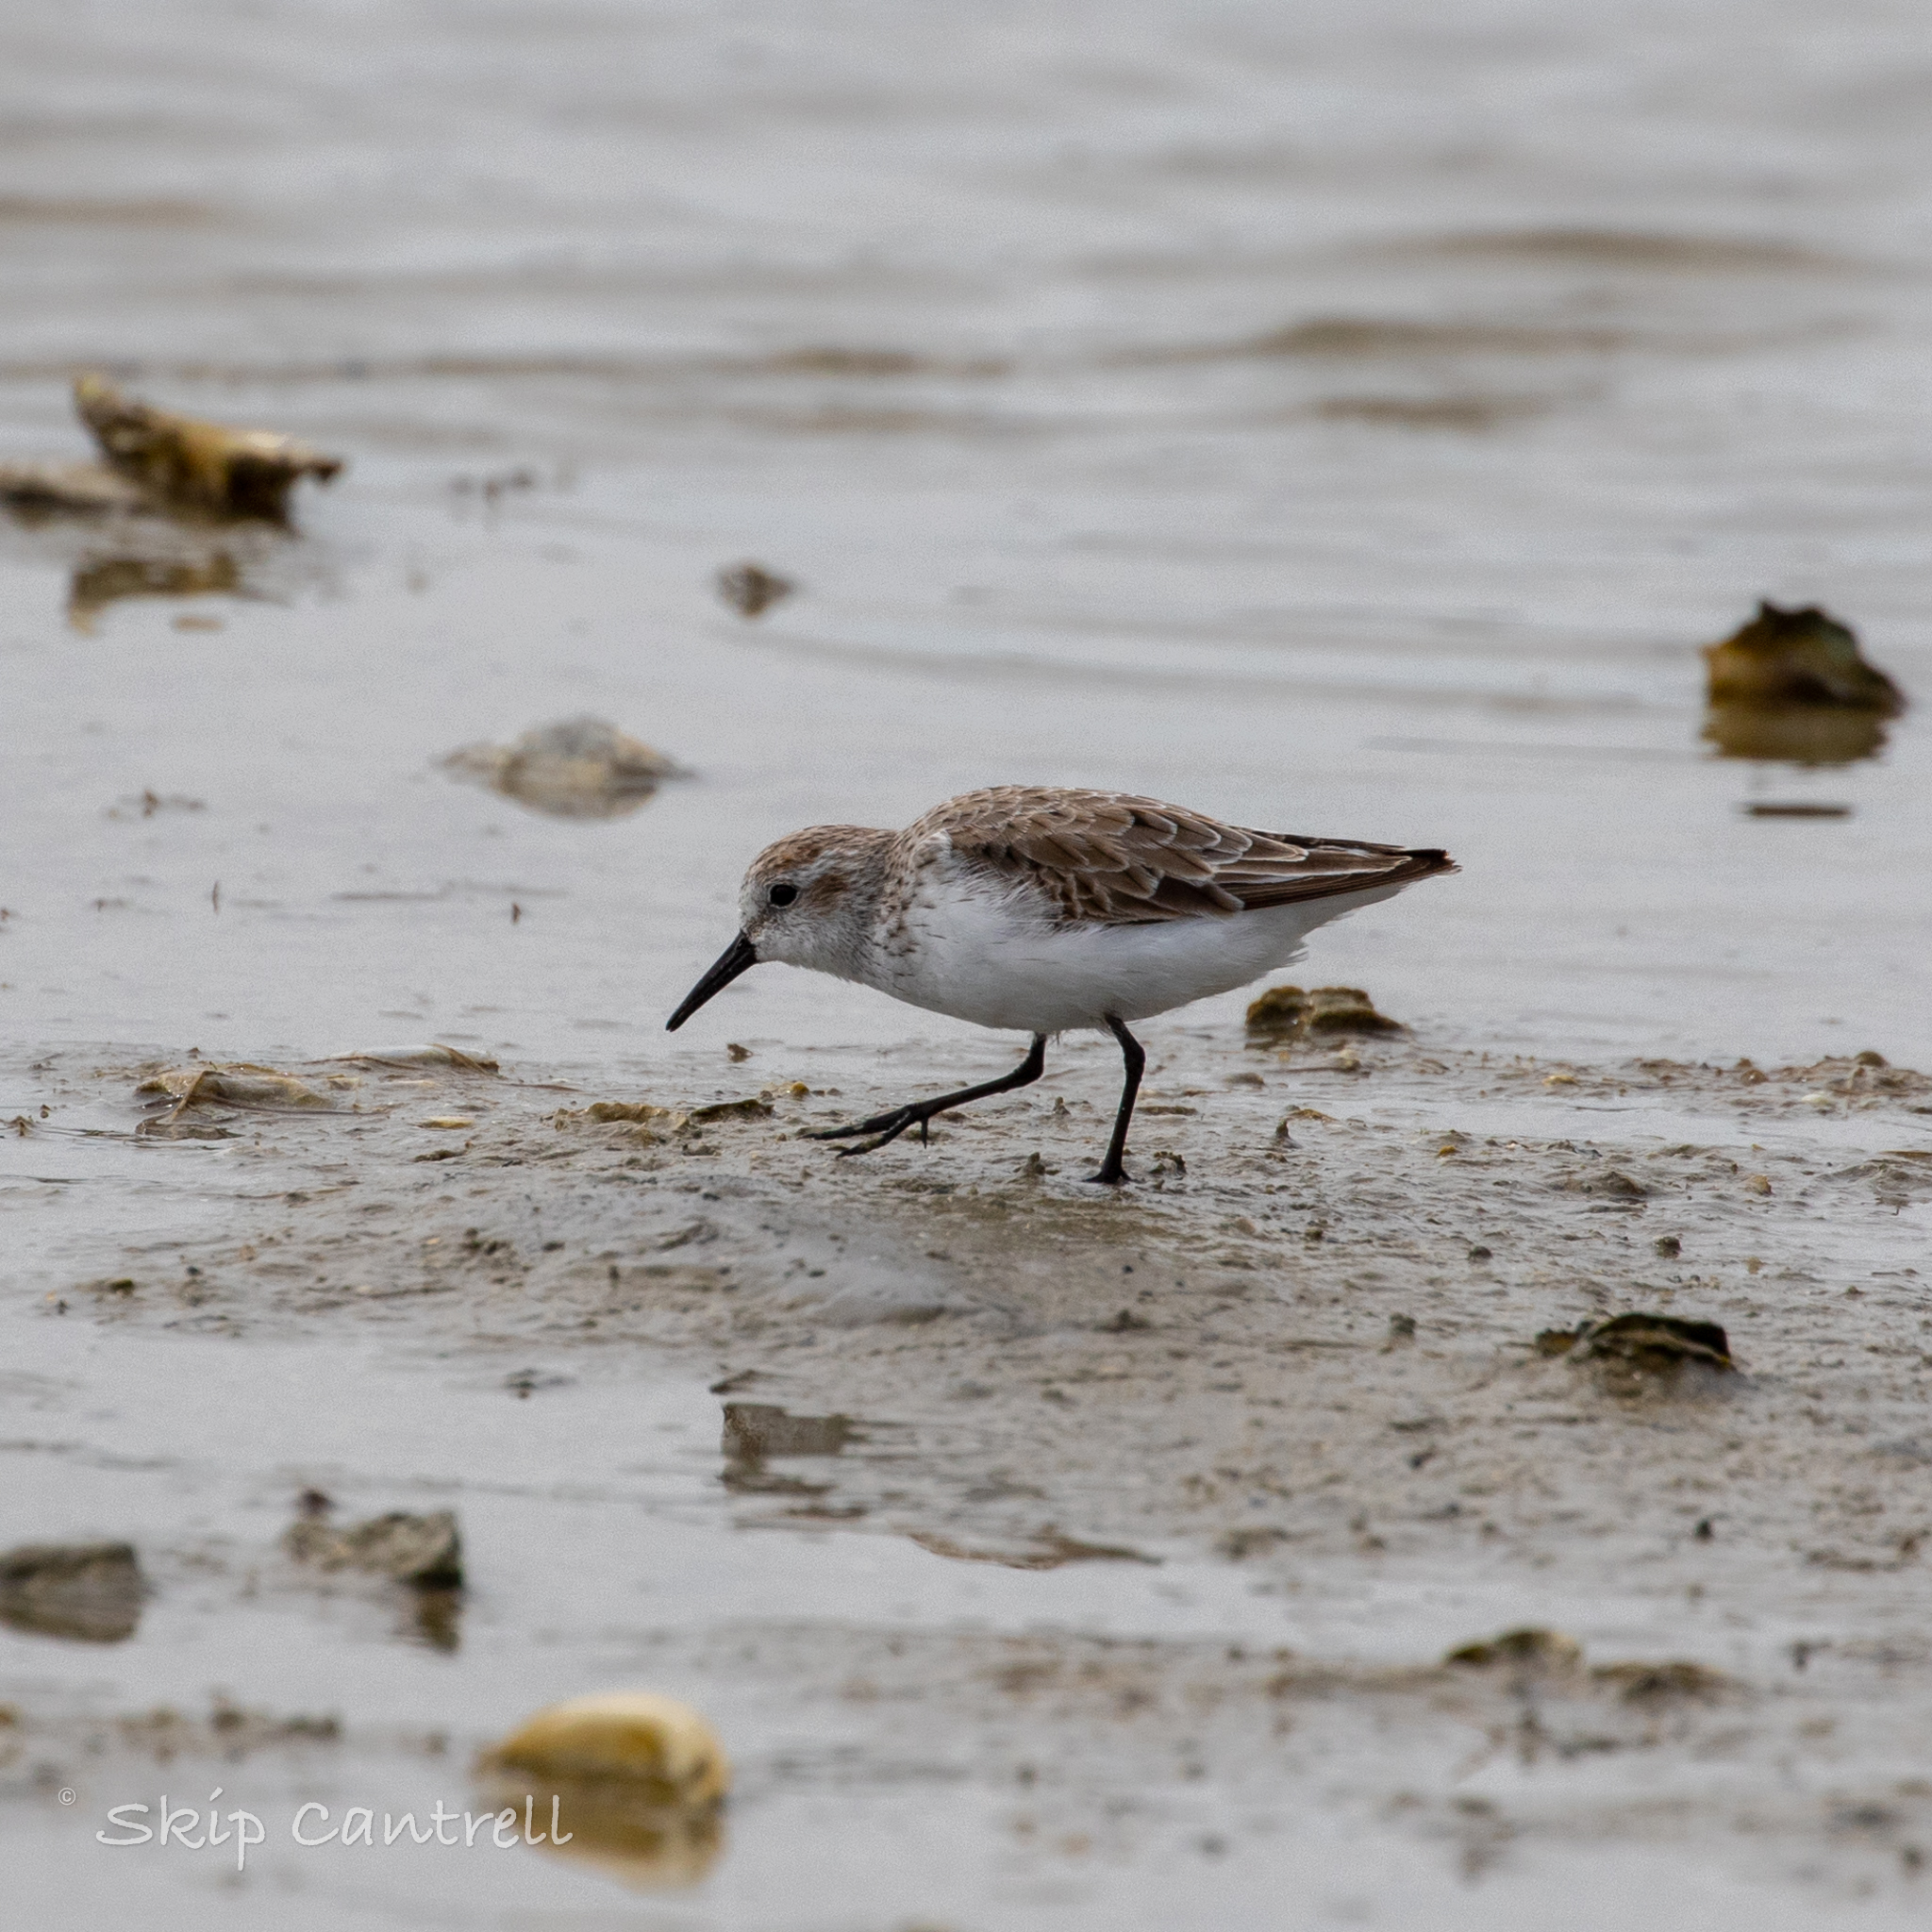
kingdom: Animalia
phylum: Chordata
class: Aves
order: Charadriiformes
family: Scolopacidae
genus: Calidris
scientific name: Calidris mauri
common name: Western sandpiper
